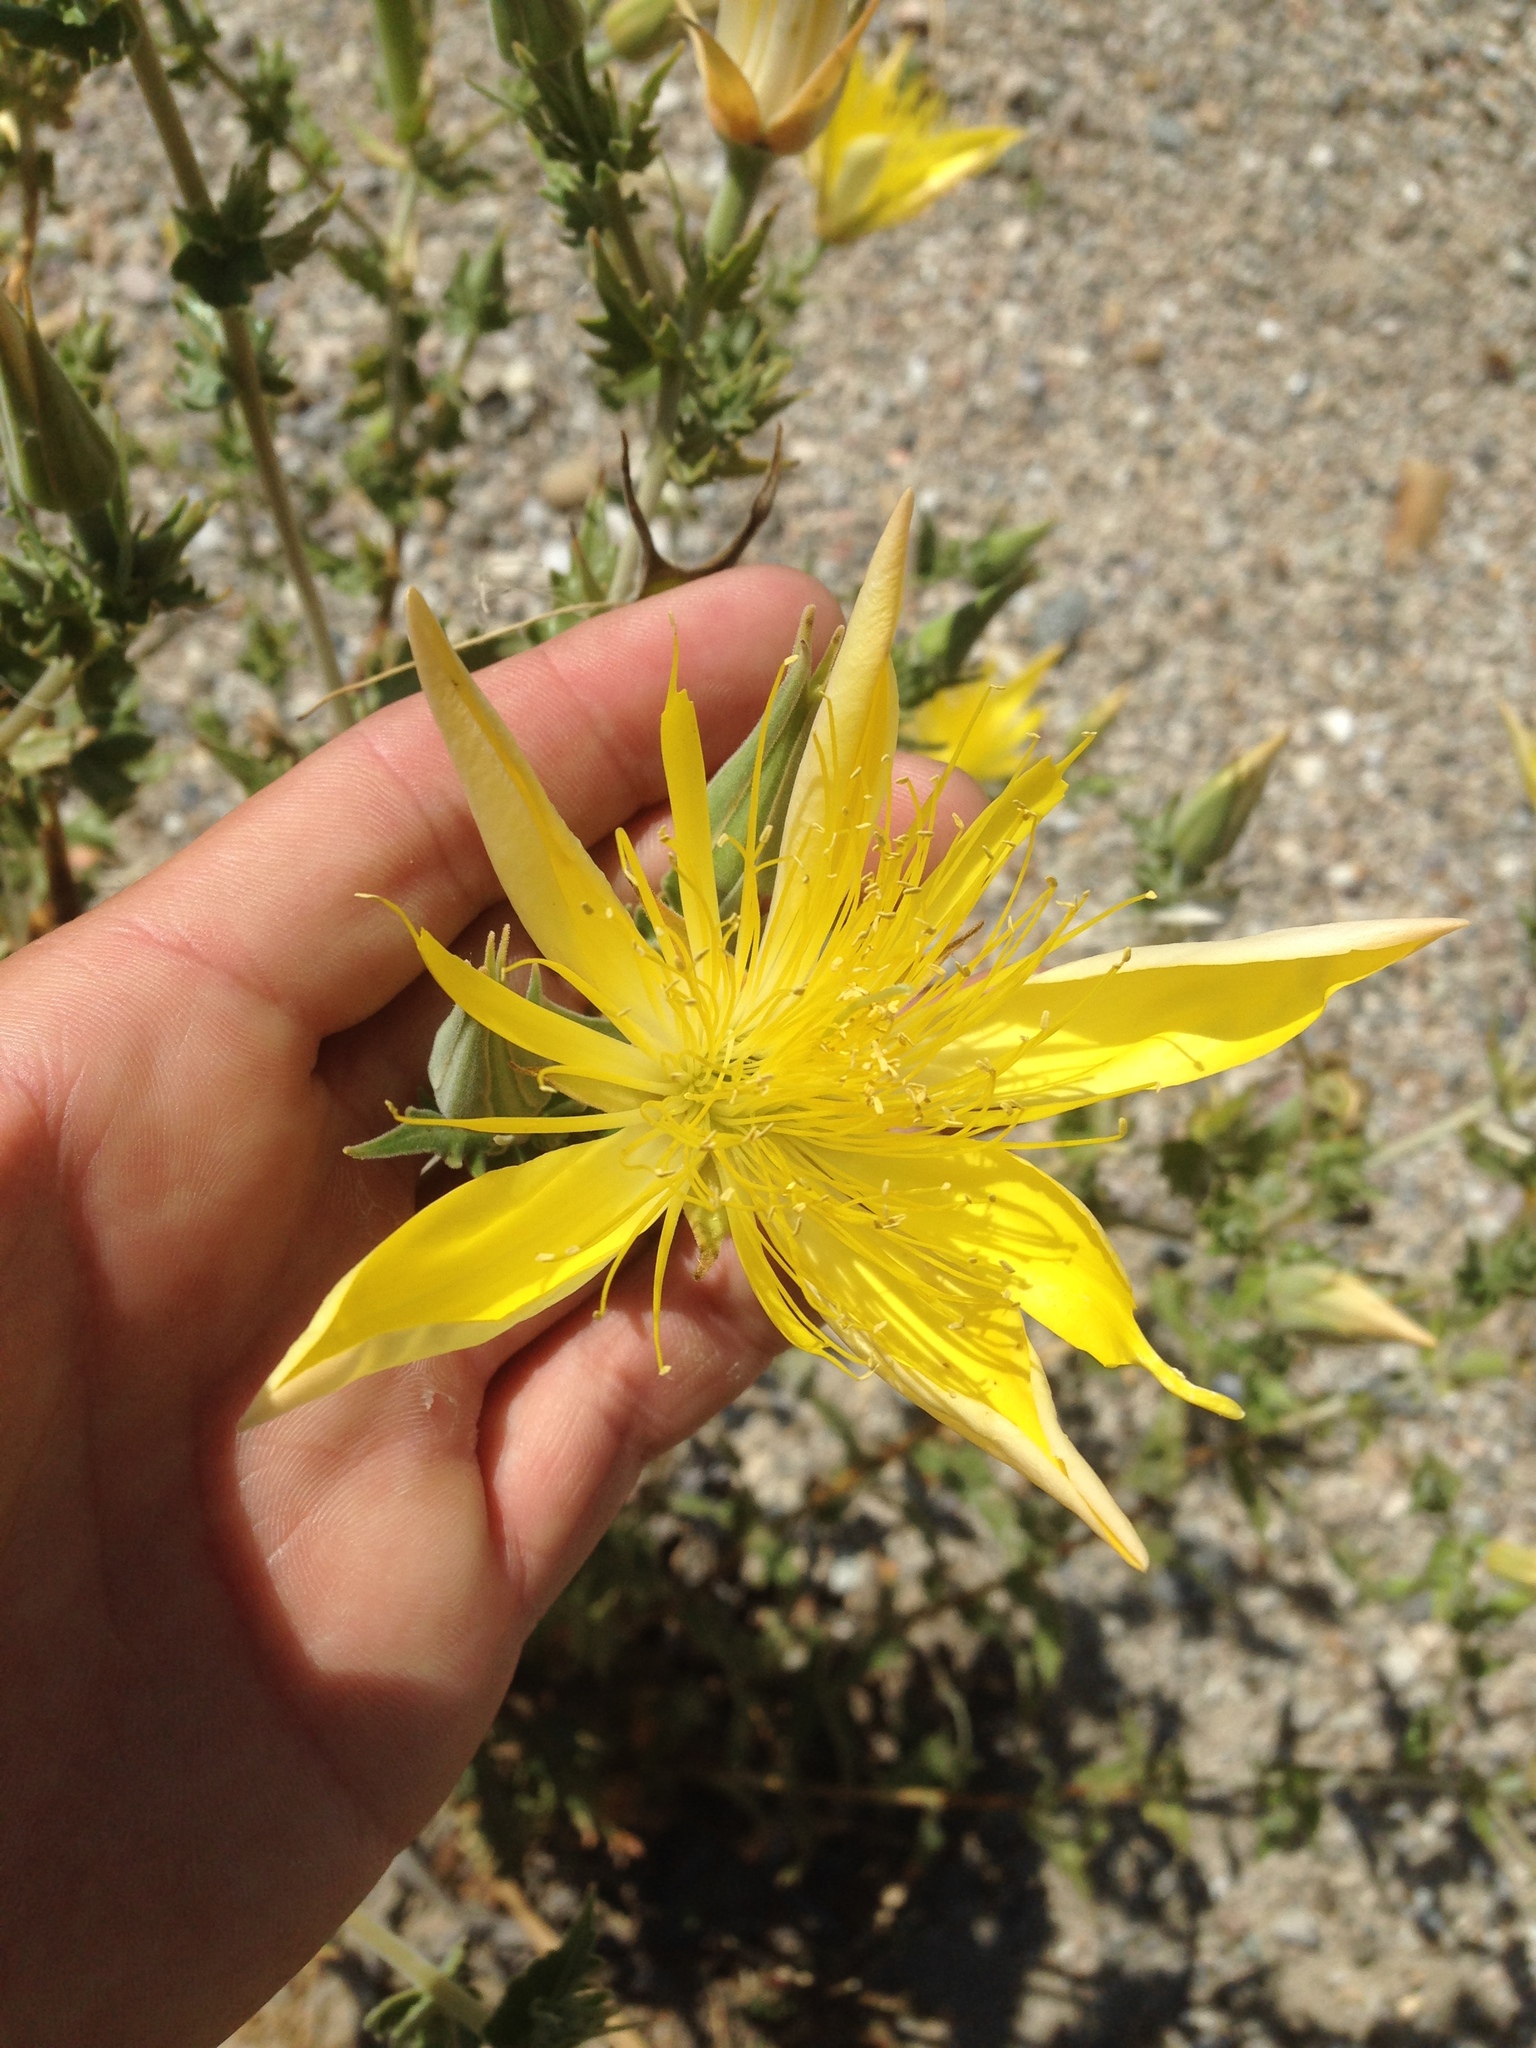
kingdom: Plantae
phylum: Tracheophyta
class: Magnoliopsida
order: Cornales
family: Loasaceae
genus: Mentzelia
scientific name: Mentzelia laevicaulis
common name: Smooth-stem blazingstar
